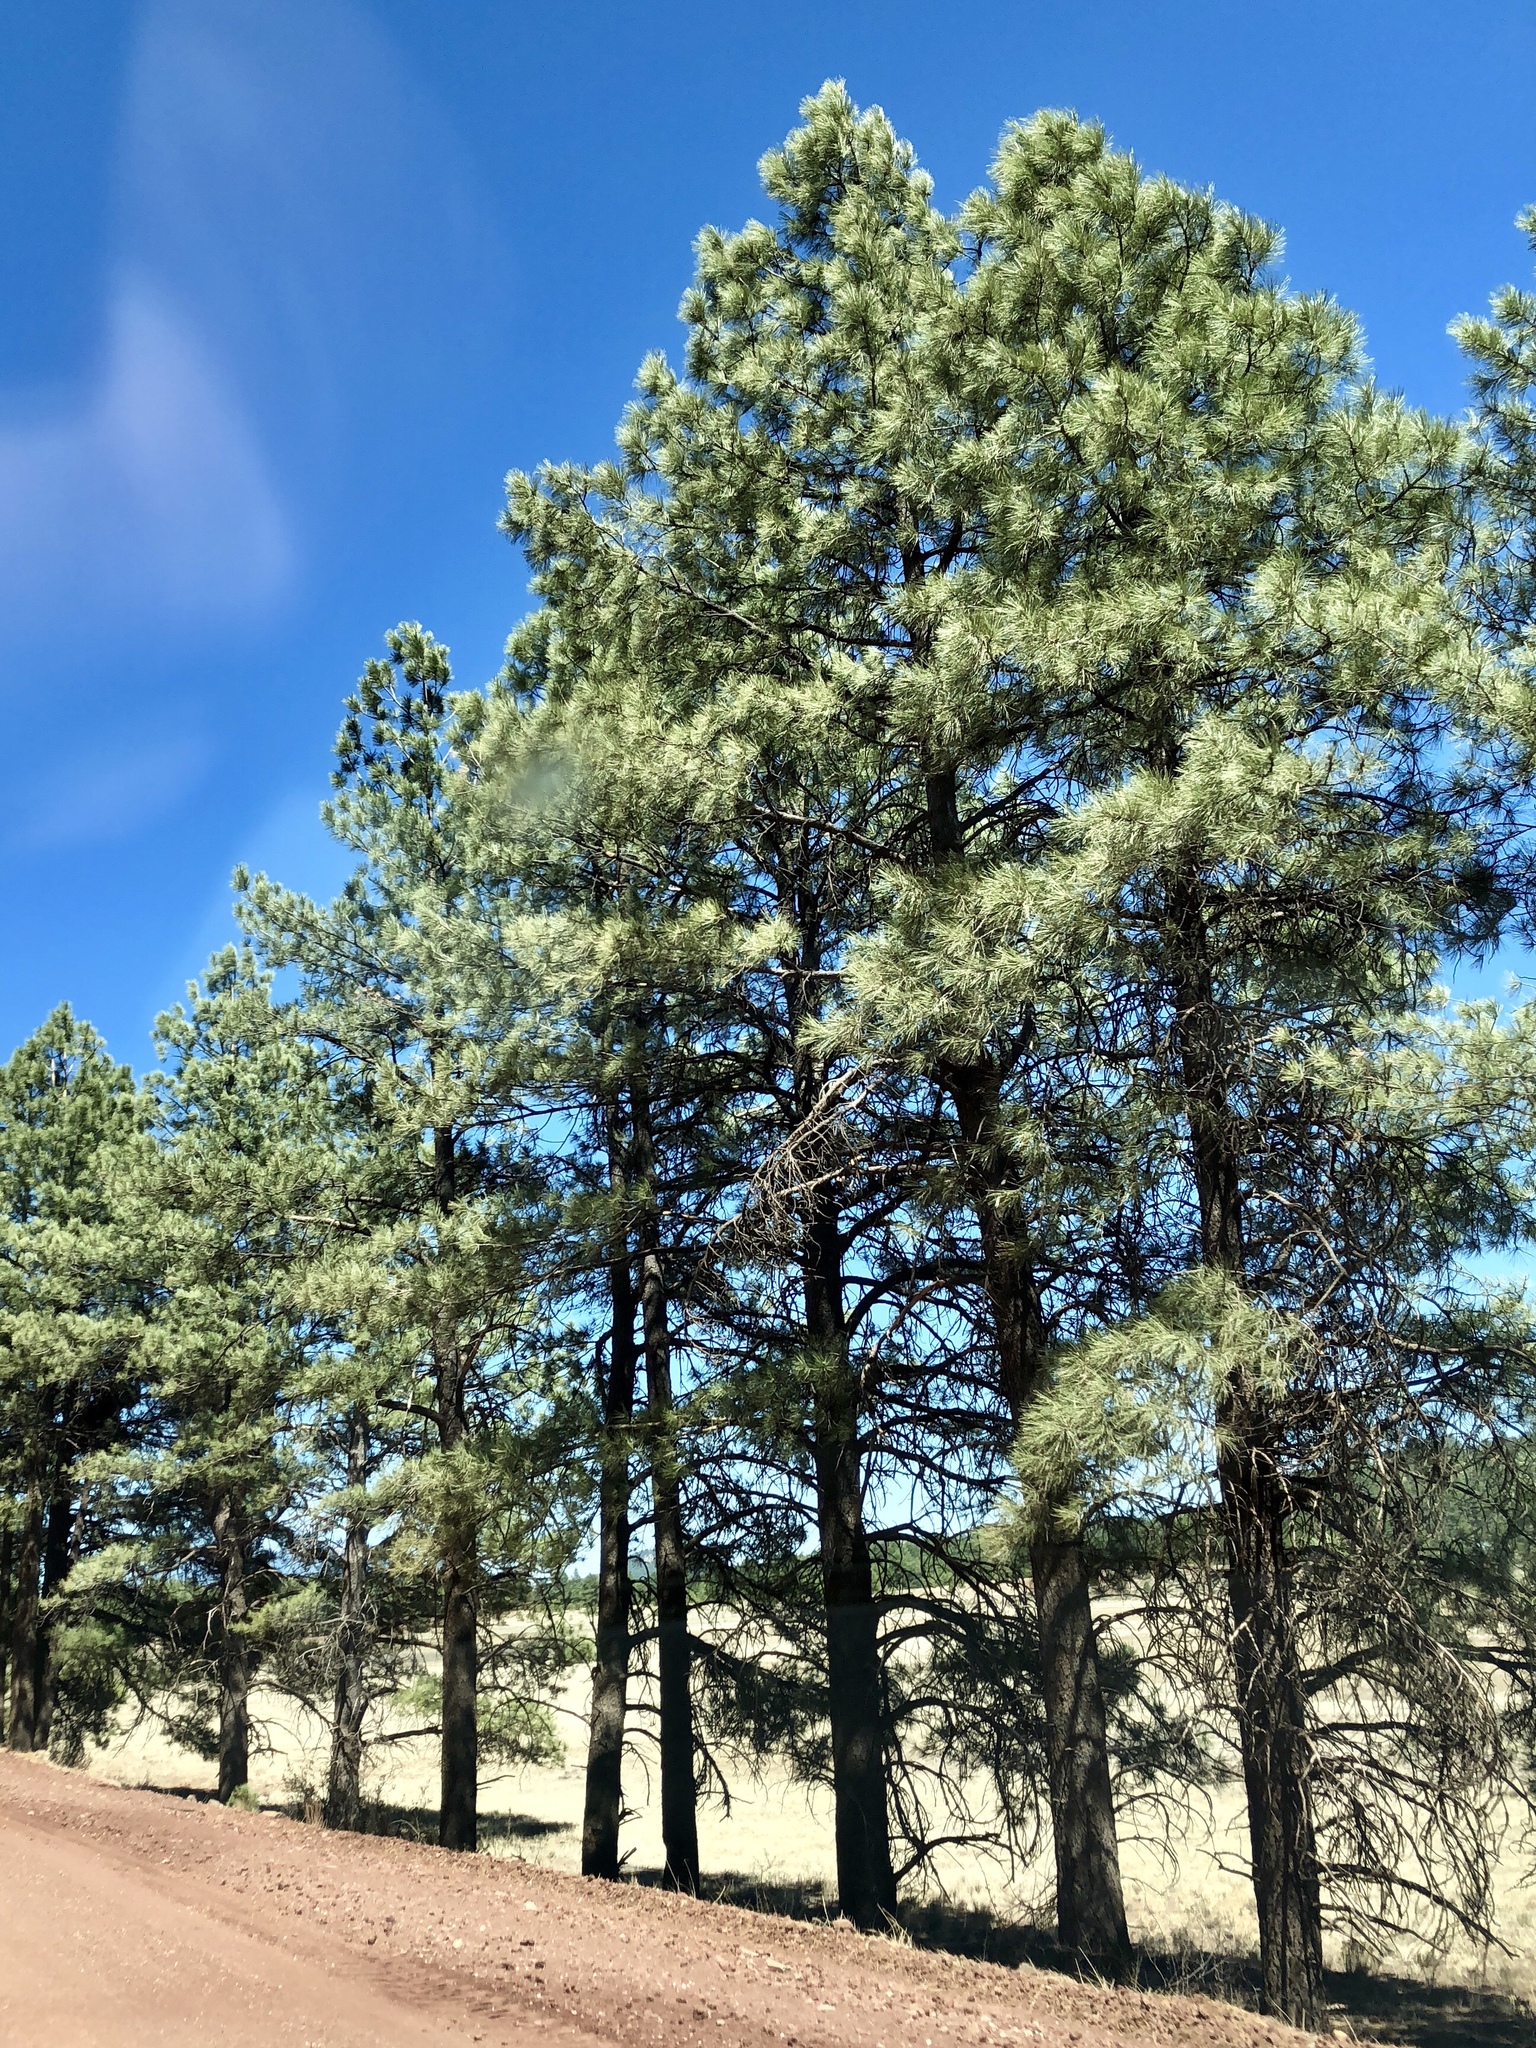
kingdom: Plantae
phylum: Tracheophyta
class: Pinopsida
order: Pinales
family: Pinaceae
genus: Pinus
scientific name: Pinus ponderosa
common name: Western yellow-pine
